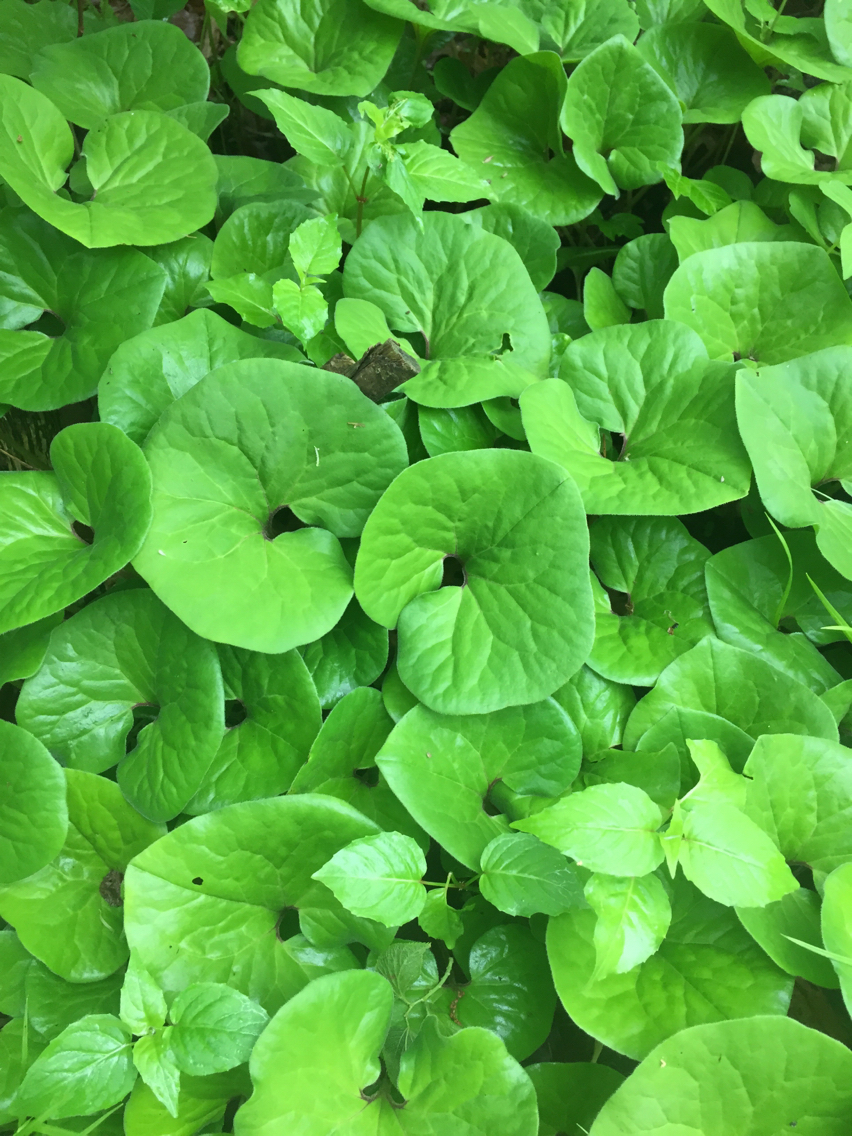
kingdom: Plantae
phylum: Tracheophyta
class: Magnoliopsida
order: Piperales
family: Aristolochiaceae
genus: Asarum
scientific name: Asarum canadense
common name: Wild ginger
